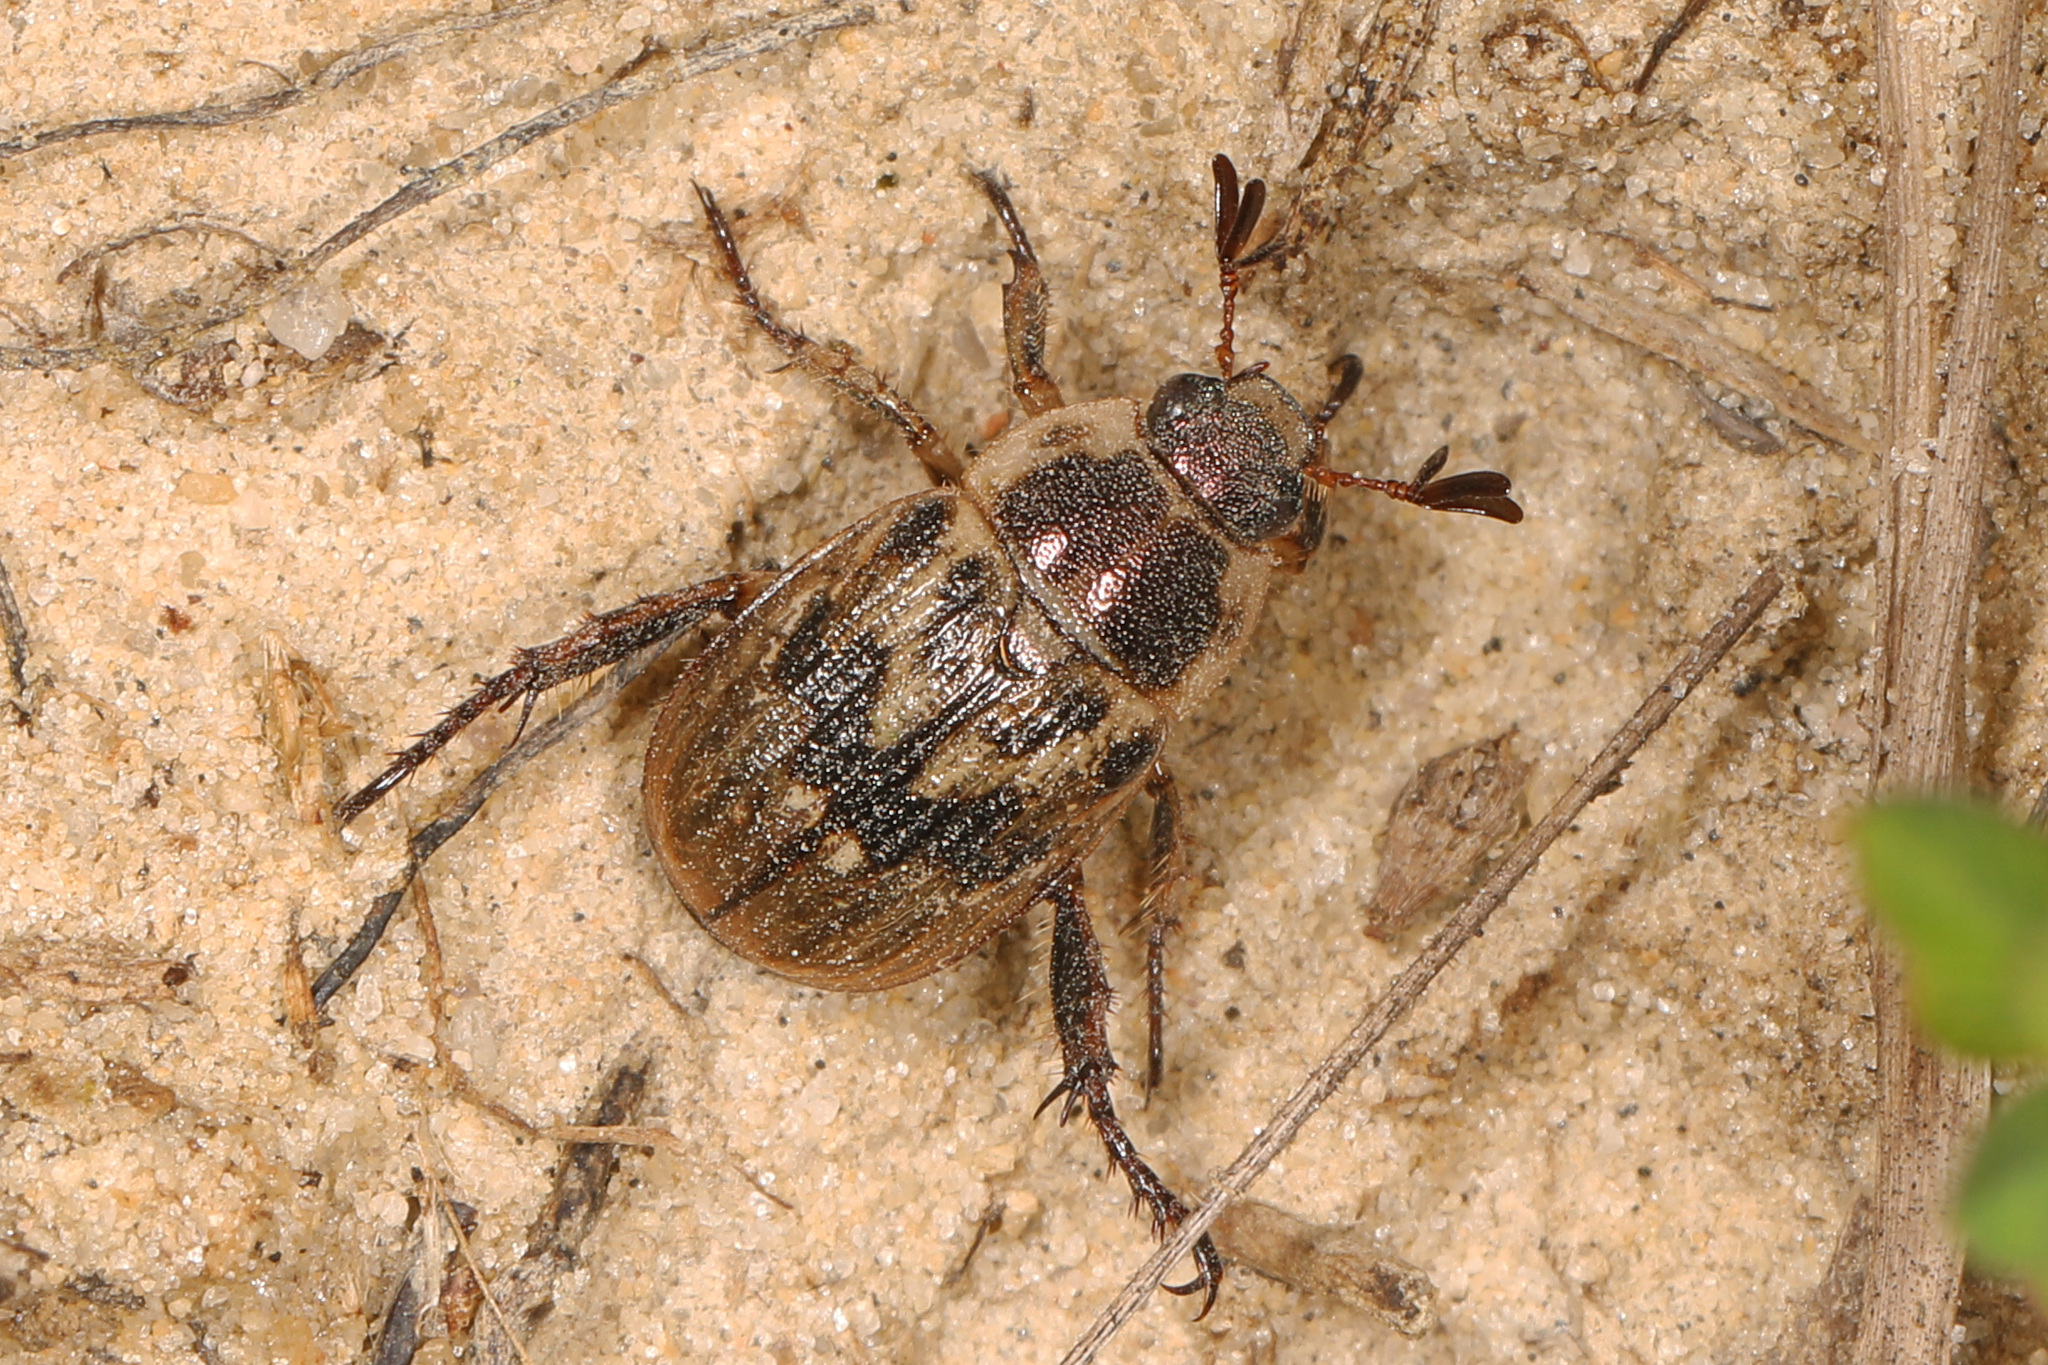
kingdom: Animalia
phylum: Arthropoda
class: Insecta
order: Coleoptera
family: Scarabaeidae
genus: Exomala
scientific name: Exomala orientalis
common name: Oriental beetle
